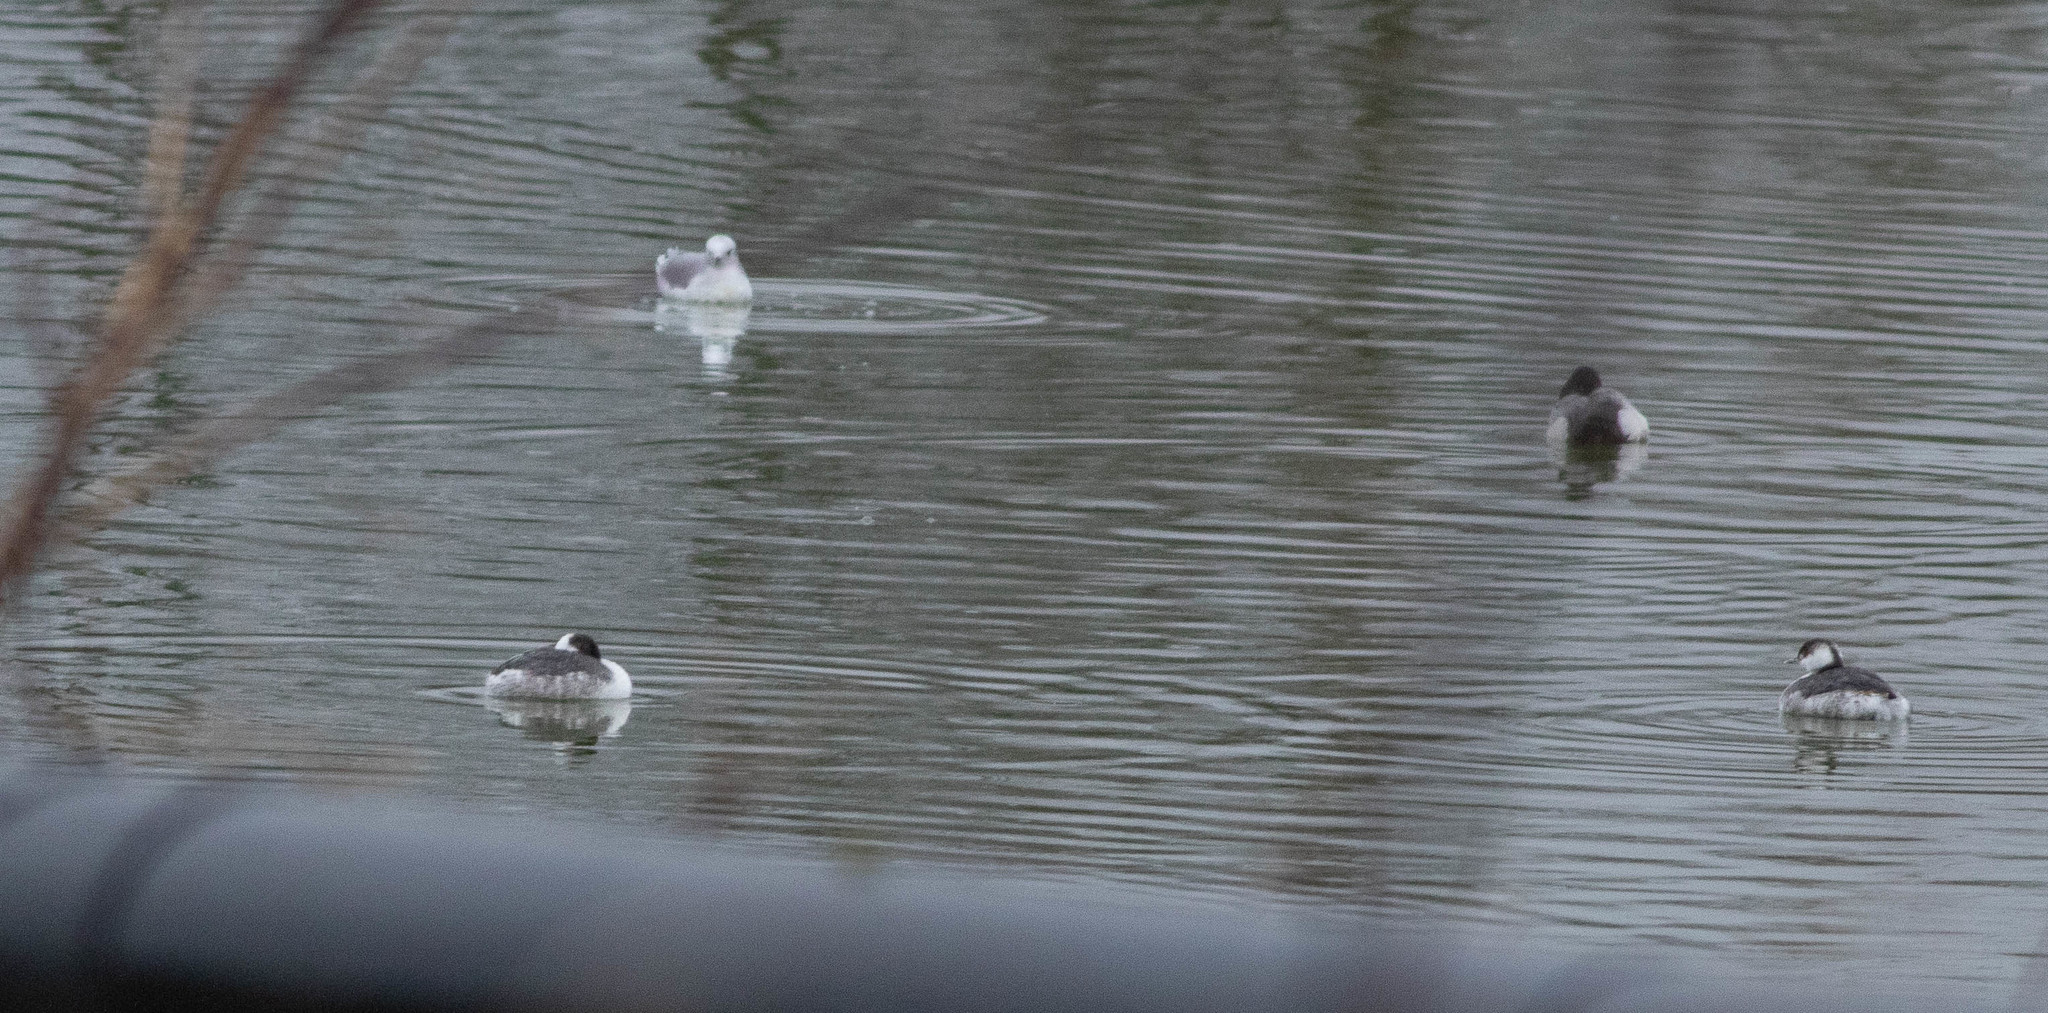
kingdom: Animalia
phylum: Chordata
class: Aves
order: Podicipediformes
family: Podicipedidae
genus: Podiceps
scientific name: Podiceps auritus
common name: Horned grebe
